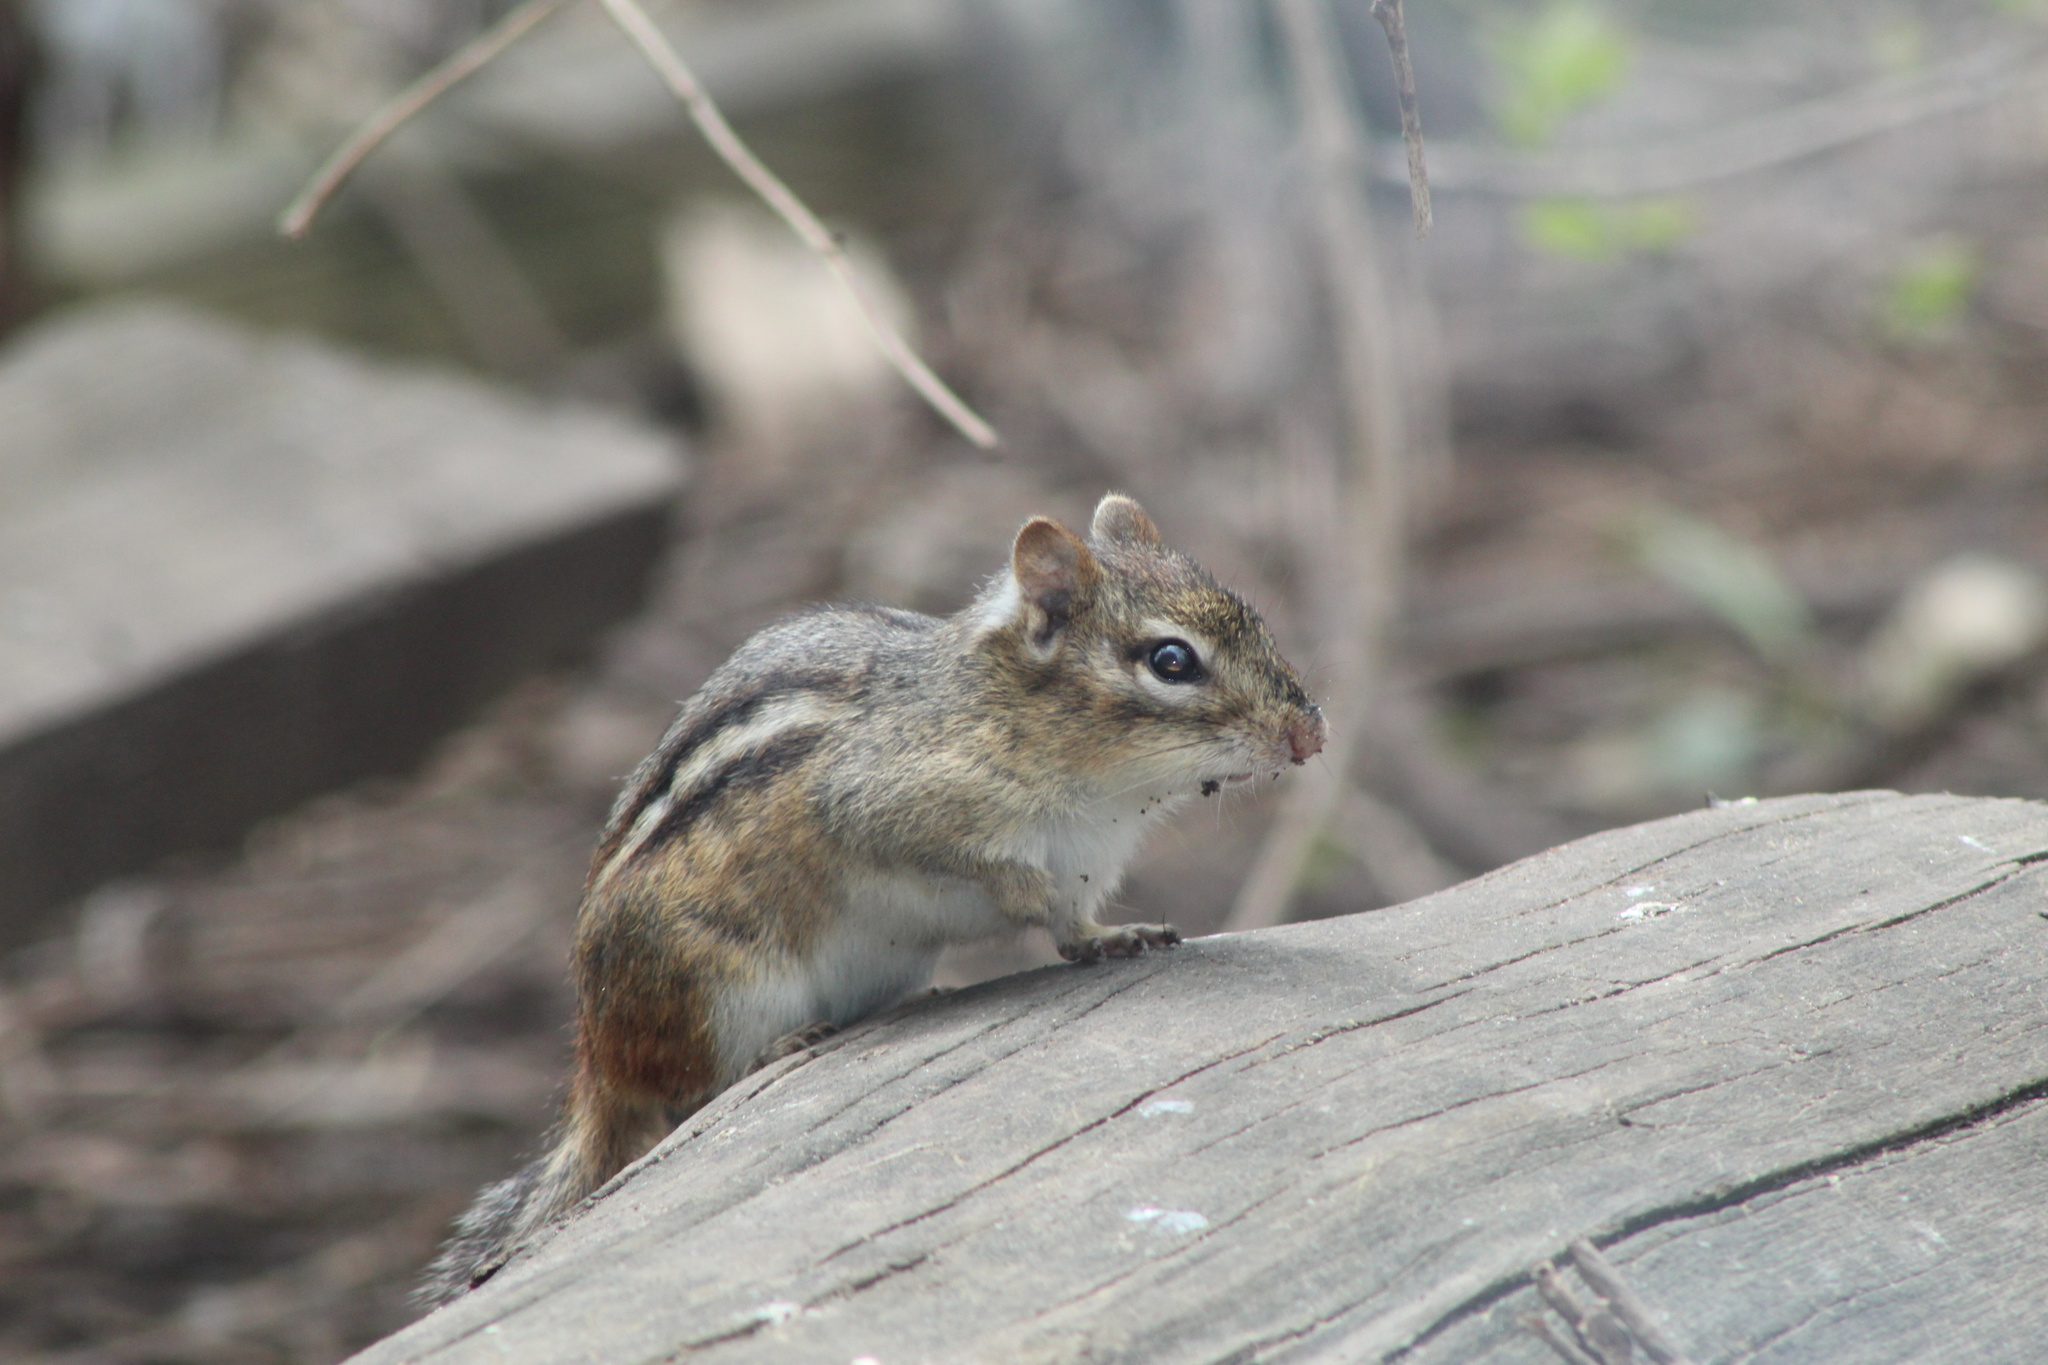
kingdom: Animalia
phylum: Chordata
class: Mammalia
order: Rodentia
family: Sciuridae
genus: Tamias
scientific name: Tamias striatus
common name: Eastern chipmunk
